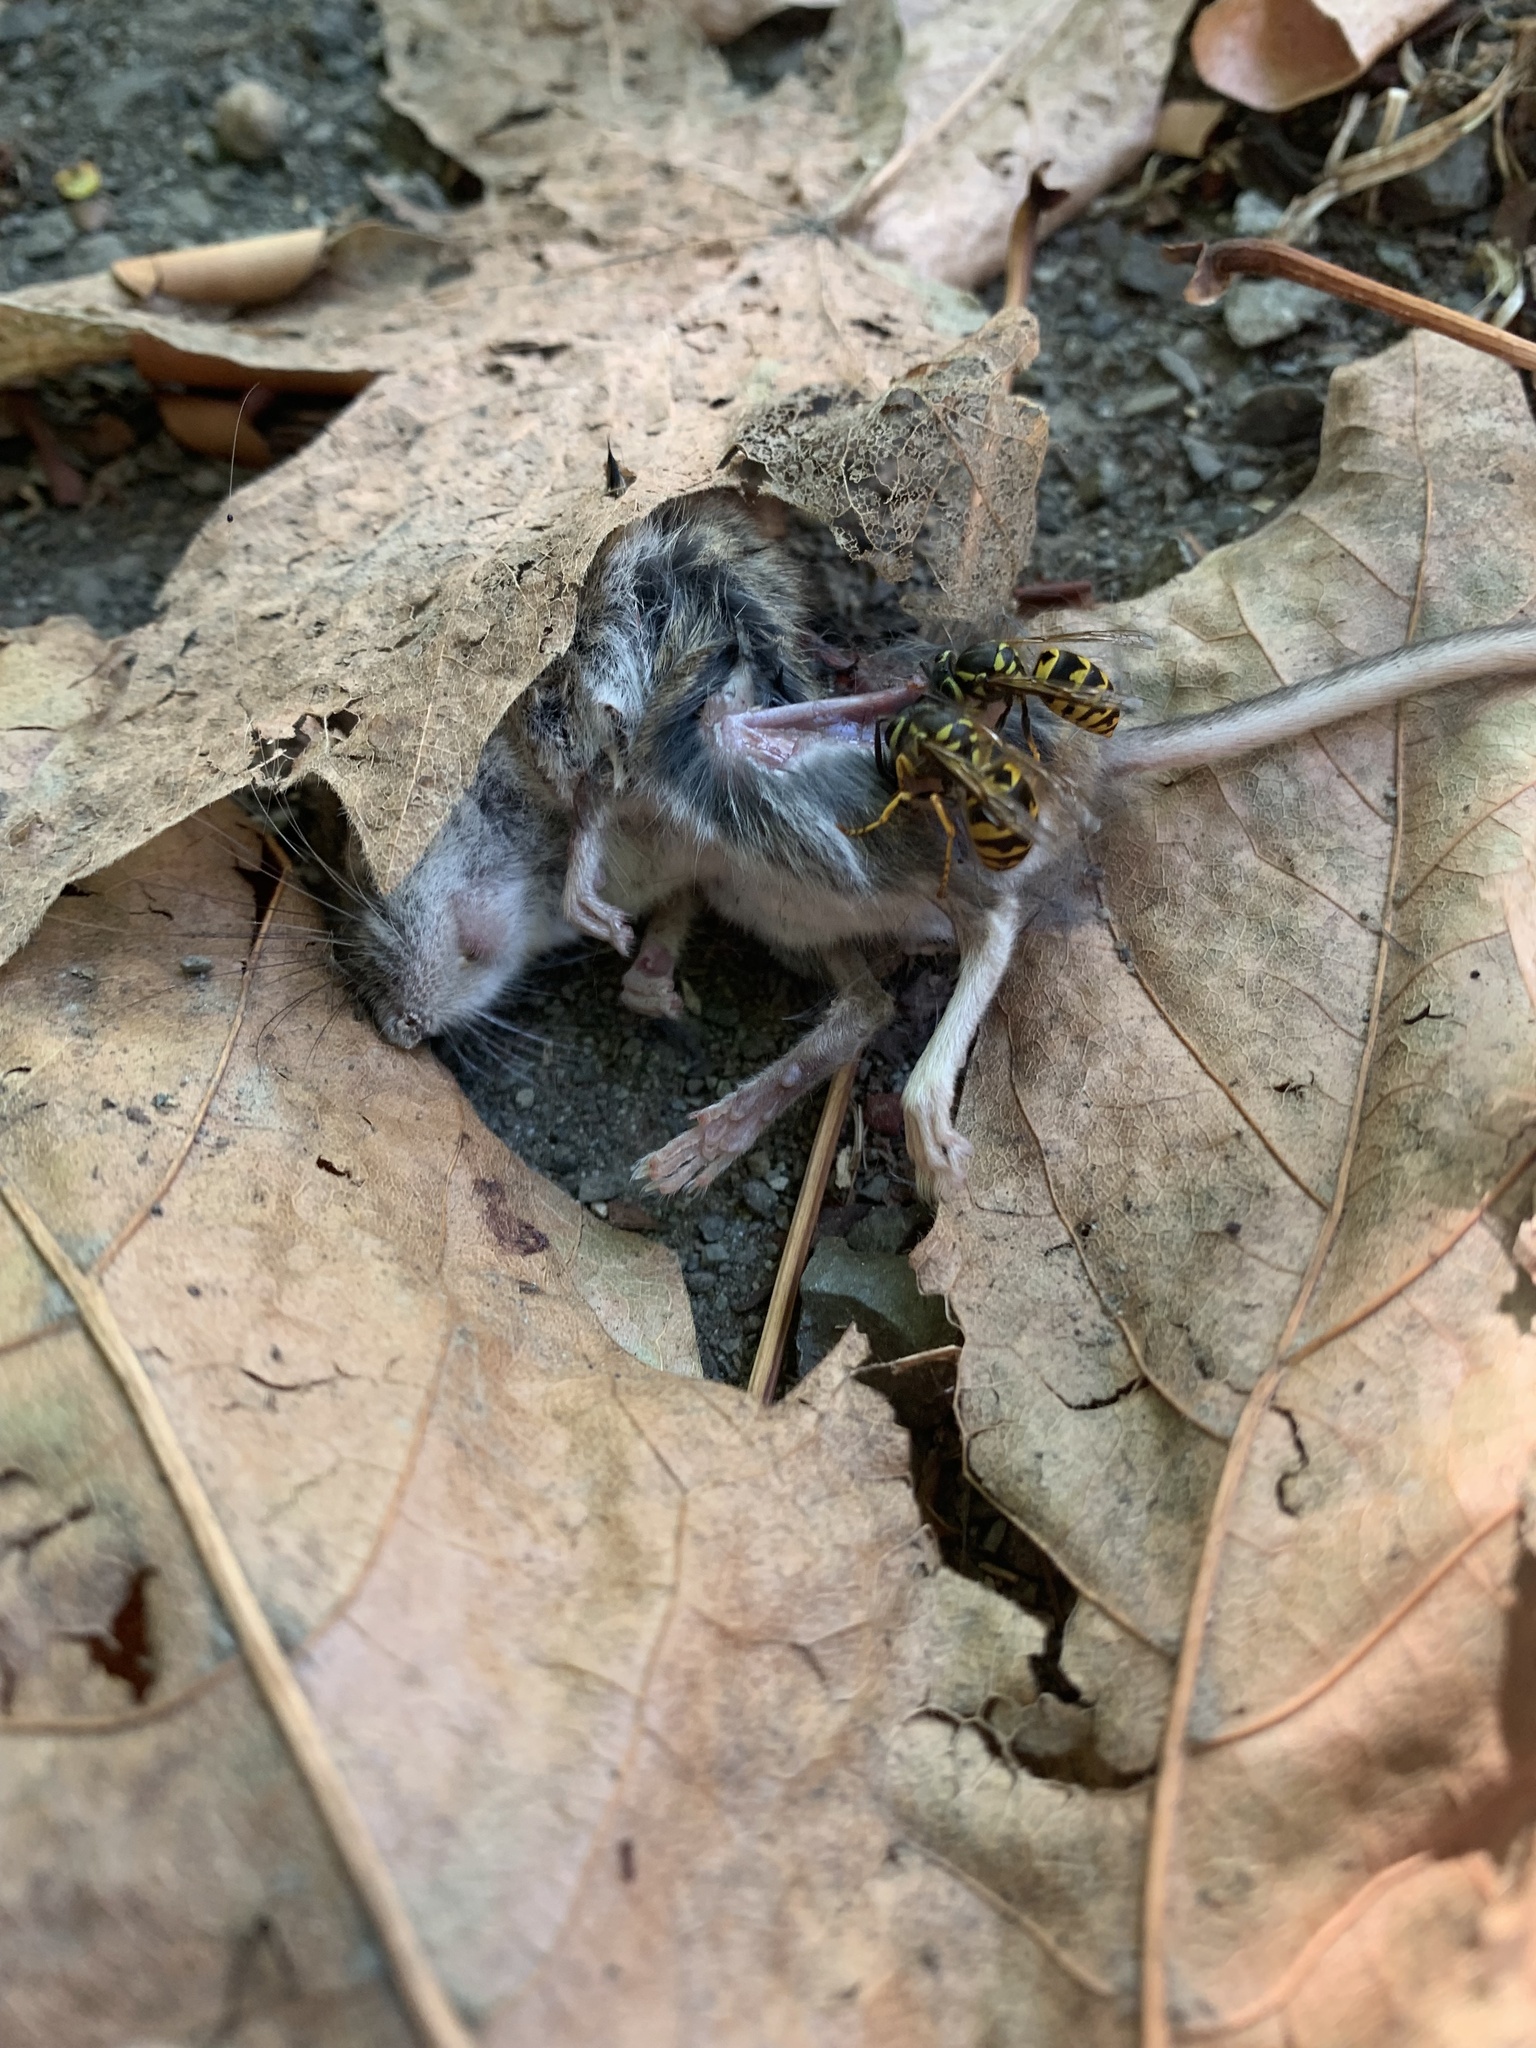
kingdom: Animalia
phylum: Chordata
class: Mammalia
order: Rodentia
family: Cricetidae
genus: Peromyscus
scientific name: Peromyscus maniculatus
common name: Deer mouse
